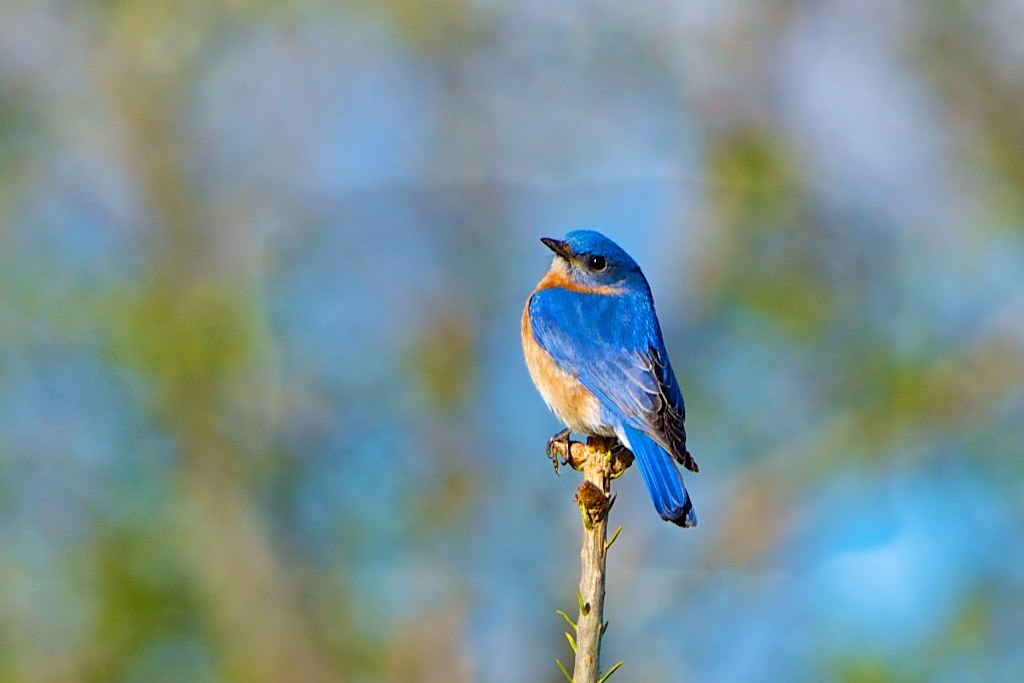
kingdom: Animalia
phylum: Chordata
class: Aves
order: Passeriformes
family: Turdidae
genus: Sialia
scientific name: Sialia sialis
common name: Eastern bluebird
